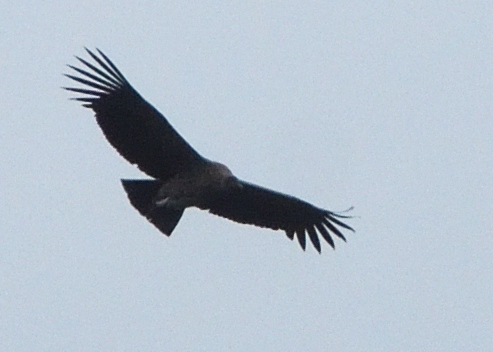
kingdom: Animalia
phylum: Chordata
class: Aves
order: Accipitriformes
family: Cathartidae
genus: Vultur
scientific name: Vultur gryphus
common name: Andean condor
